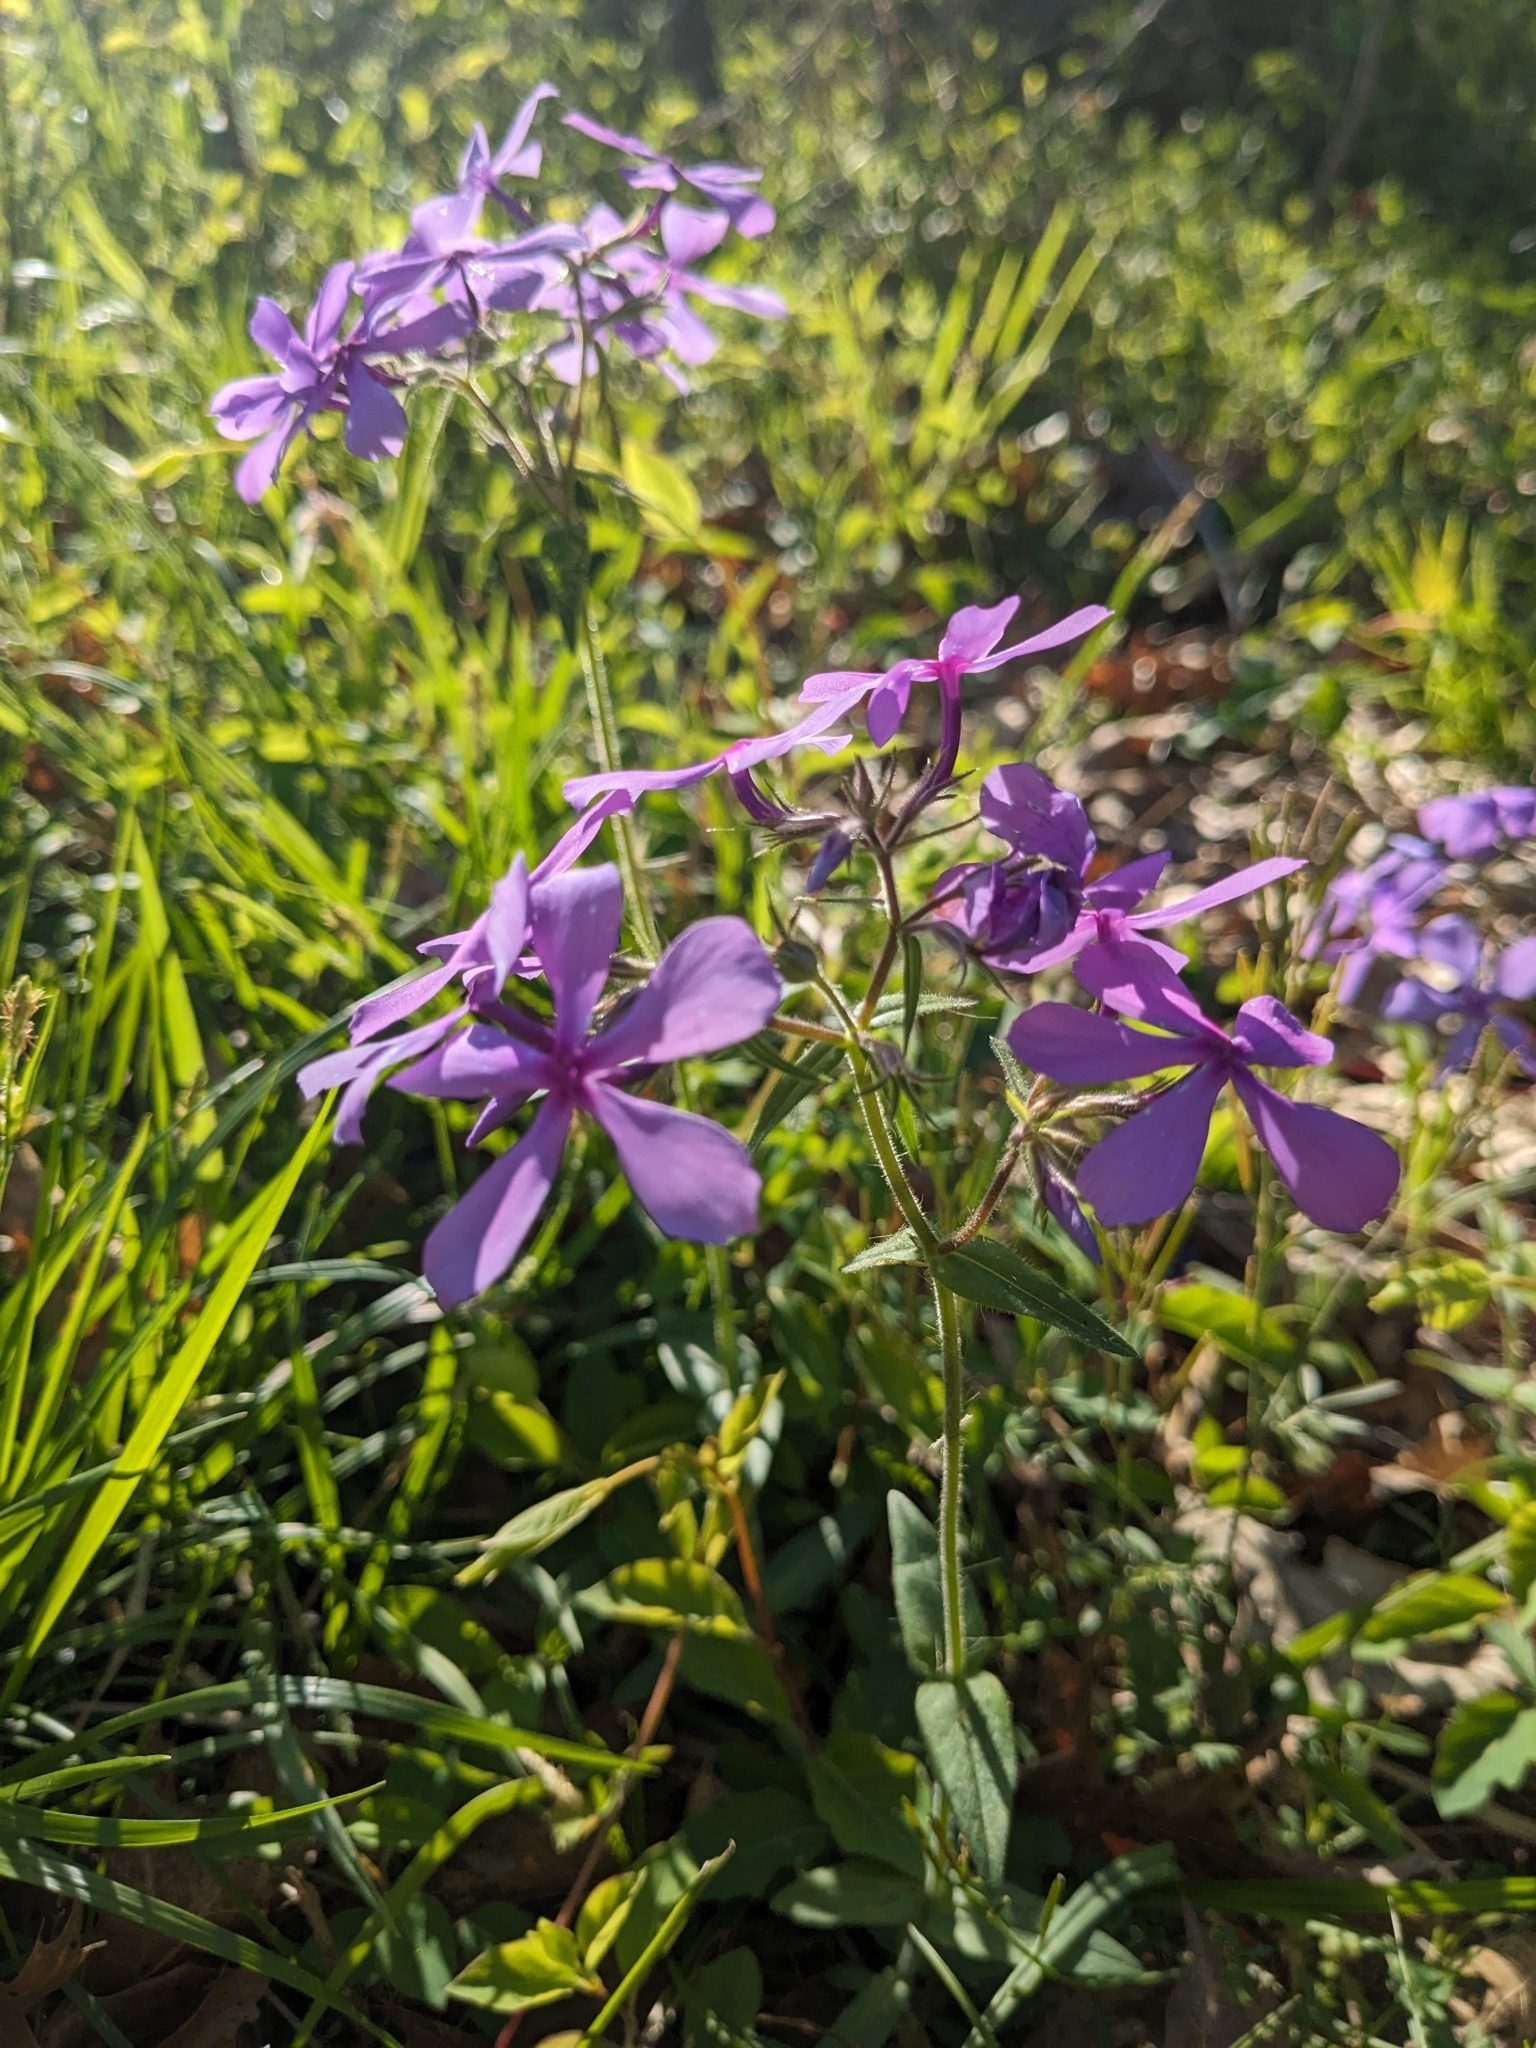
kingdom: Plantae
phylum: Tracheophyta
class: Magnoliopsida
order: Ericales
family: Polemoniaceae
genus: Phlox
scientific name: Phlox divaricata
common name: Blue phlox
